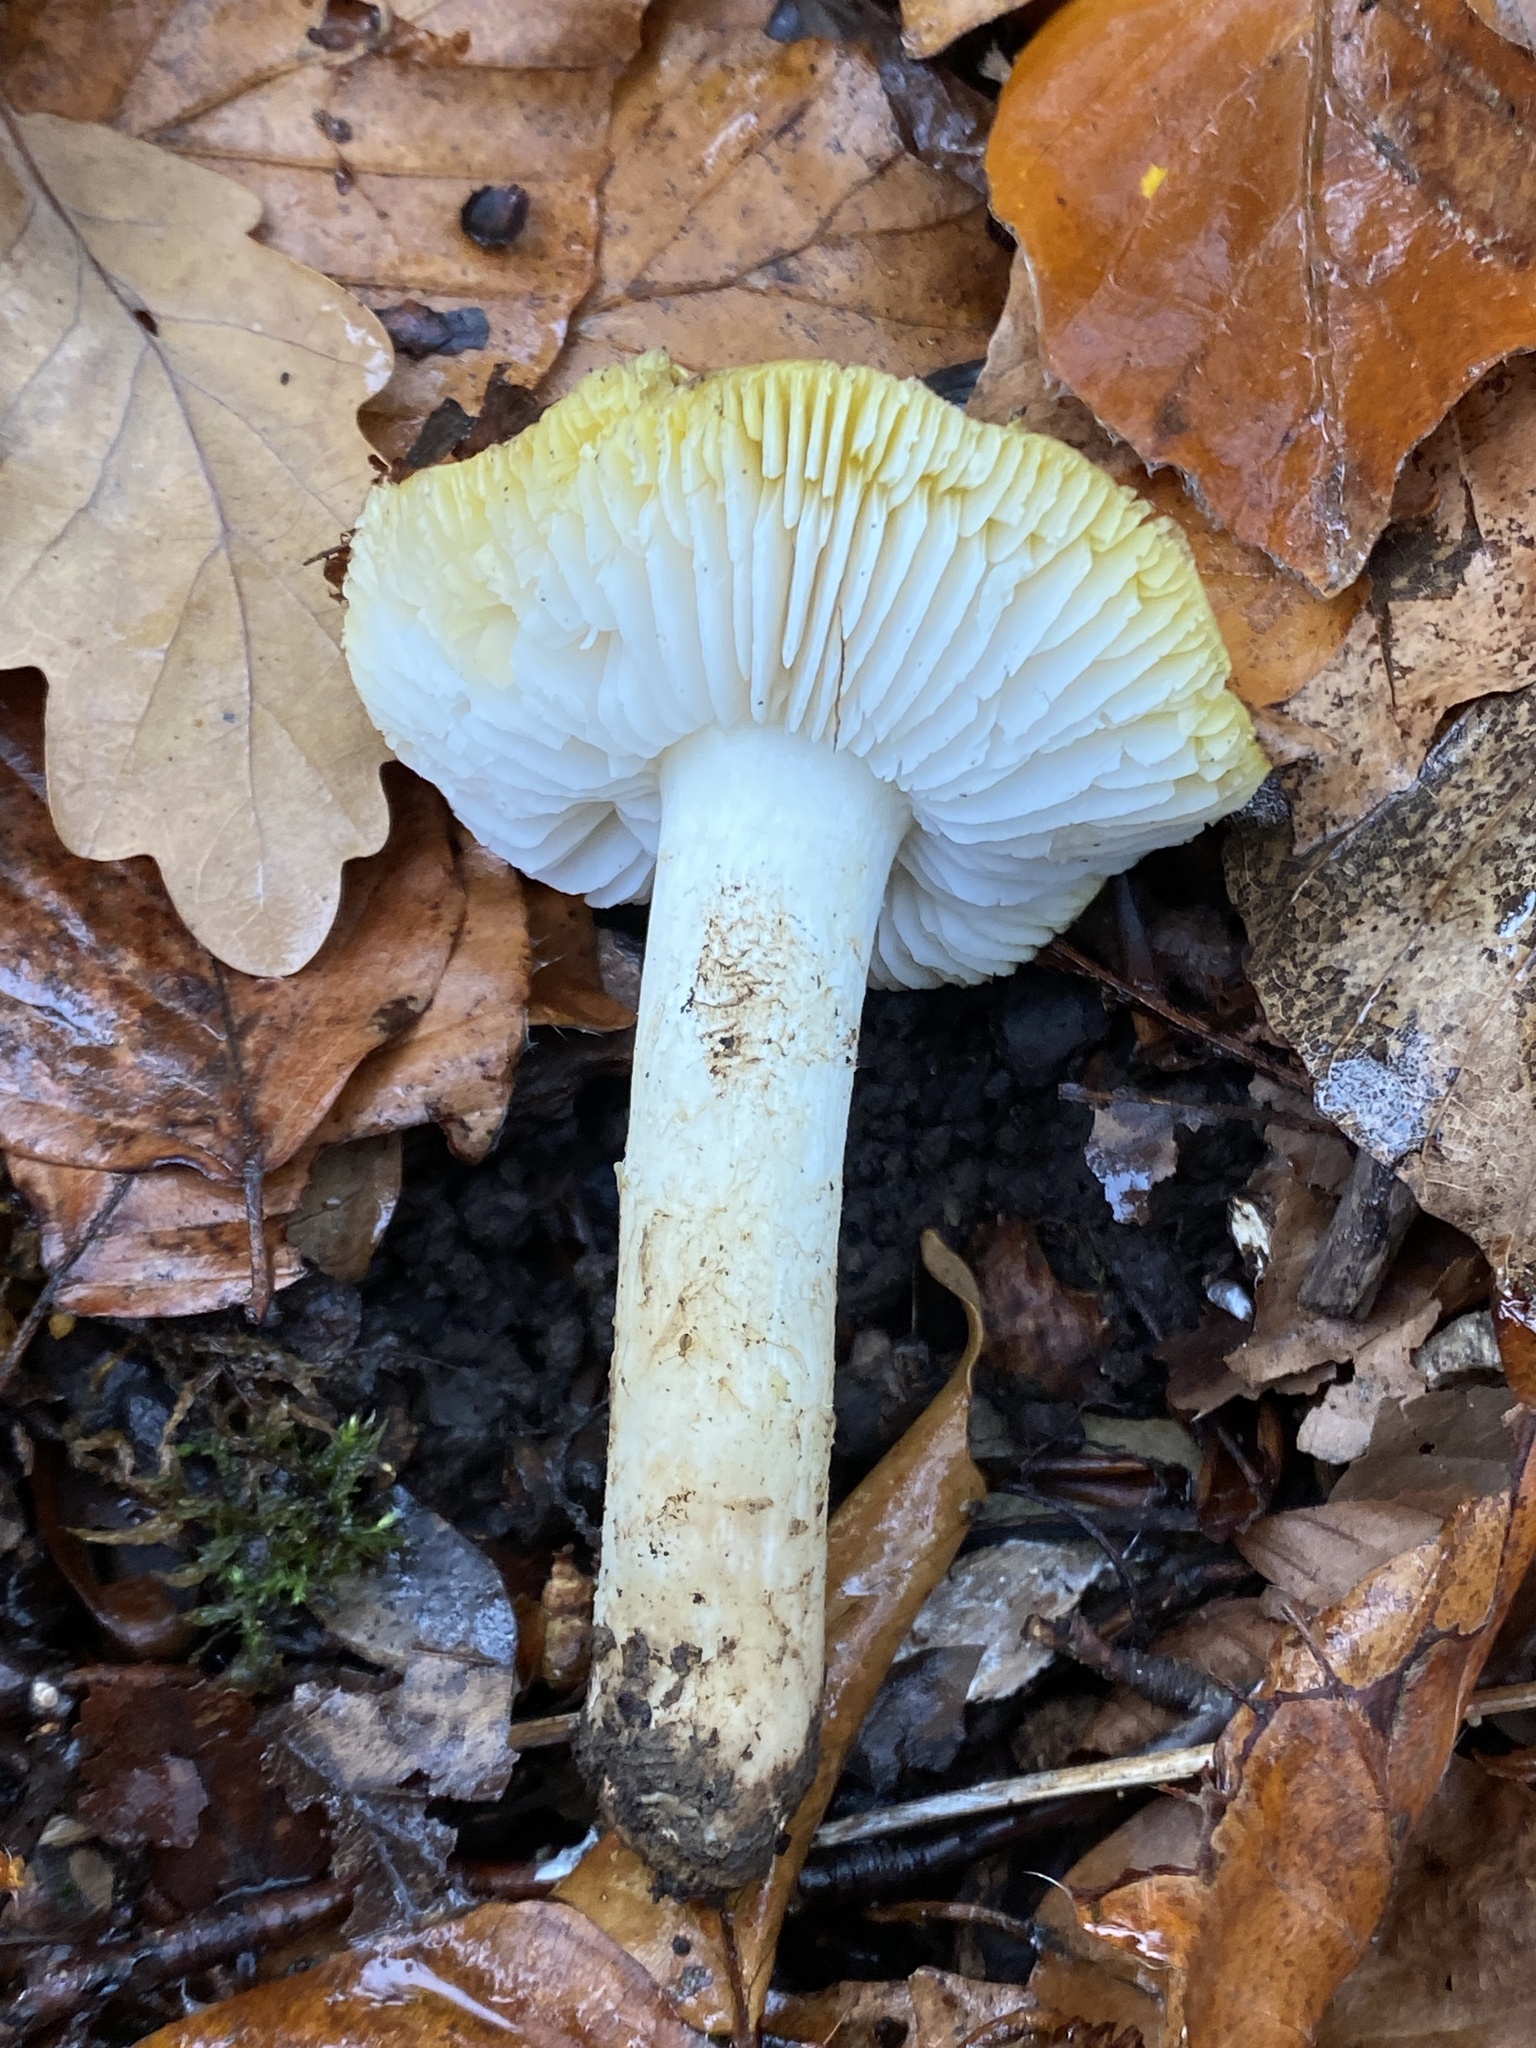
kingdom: Fungi
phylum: Basidiomycota
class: Agaricomycetes
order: Agaricales
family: Tricholomataceae
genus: Tricholoma
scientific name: Tricholoma sejunctum
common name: Deceiving knight
